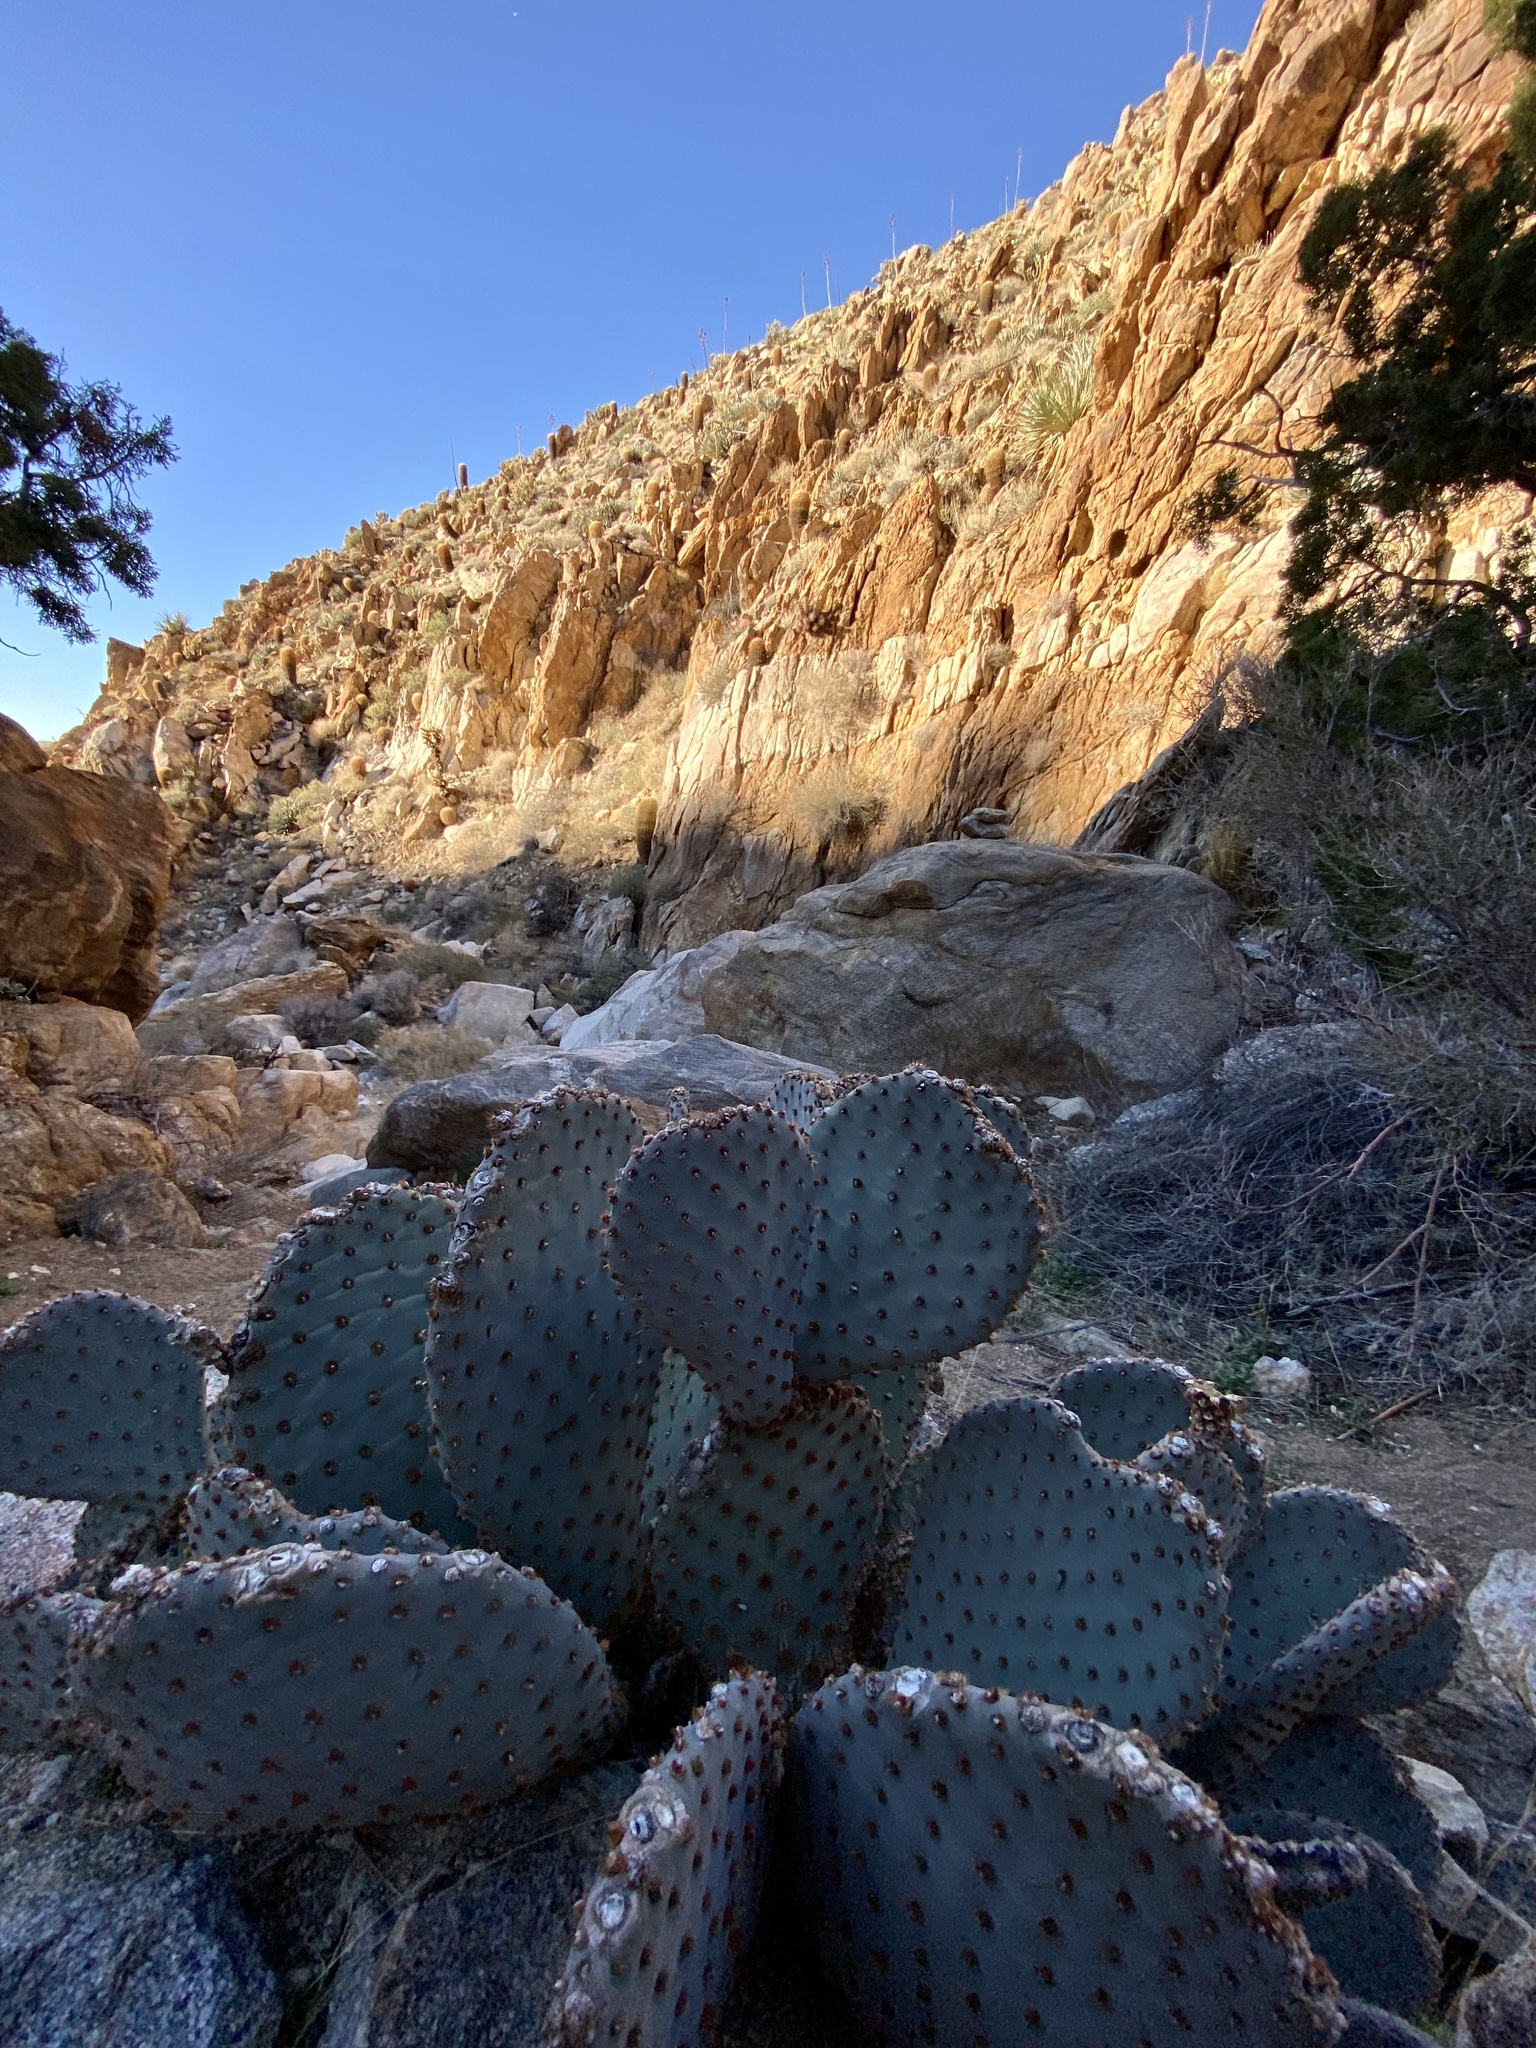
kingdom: Plantae
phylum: Tracheophyta
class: Magnoliopsida
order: Caryophyllales
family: Cactaceae
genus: Opuntia
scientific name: Opuntia basilaris
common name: Beavertail prickly-pear
